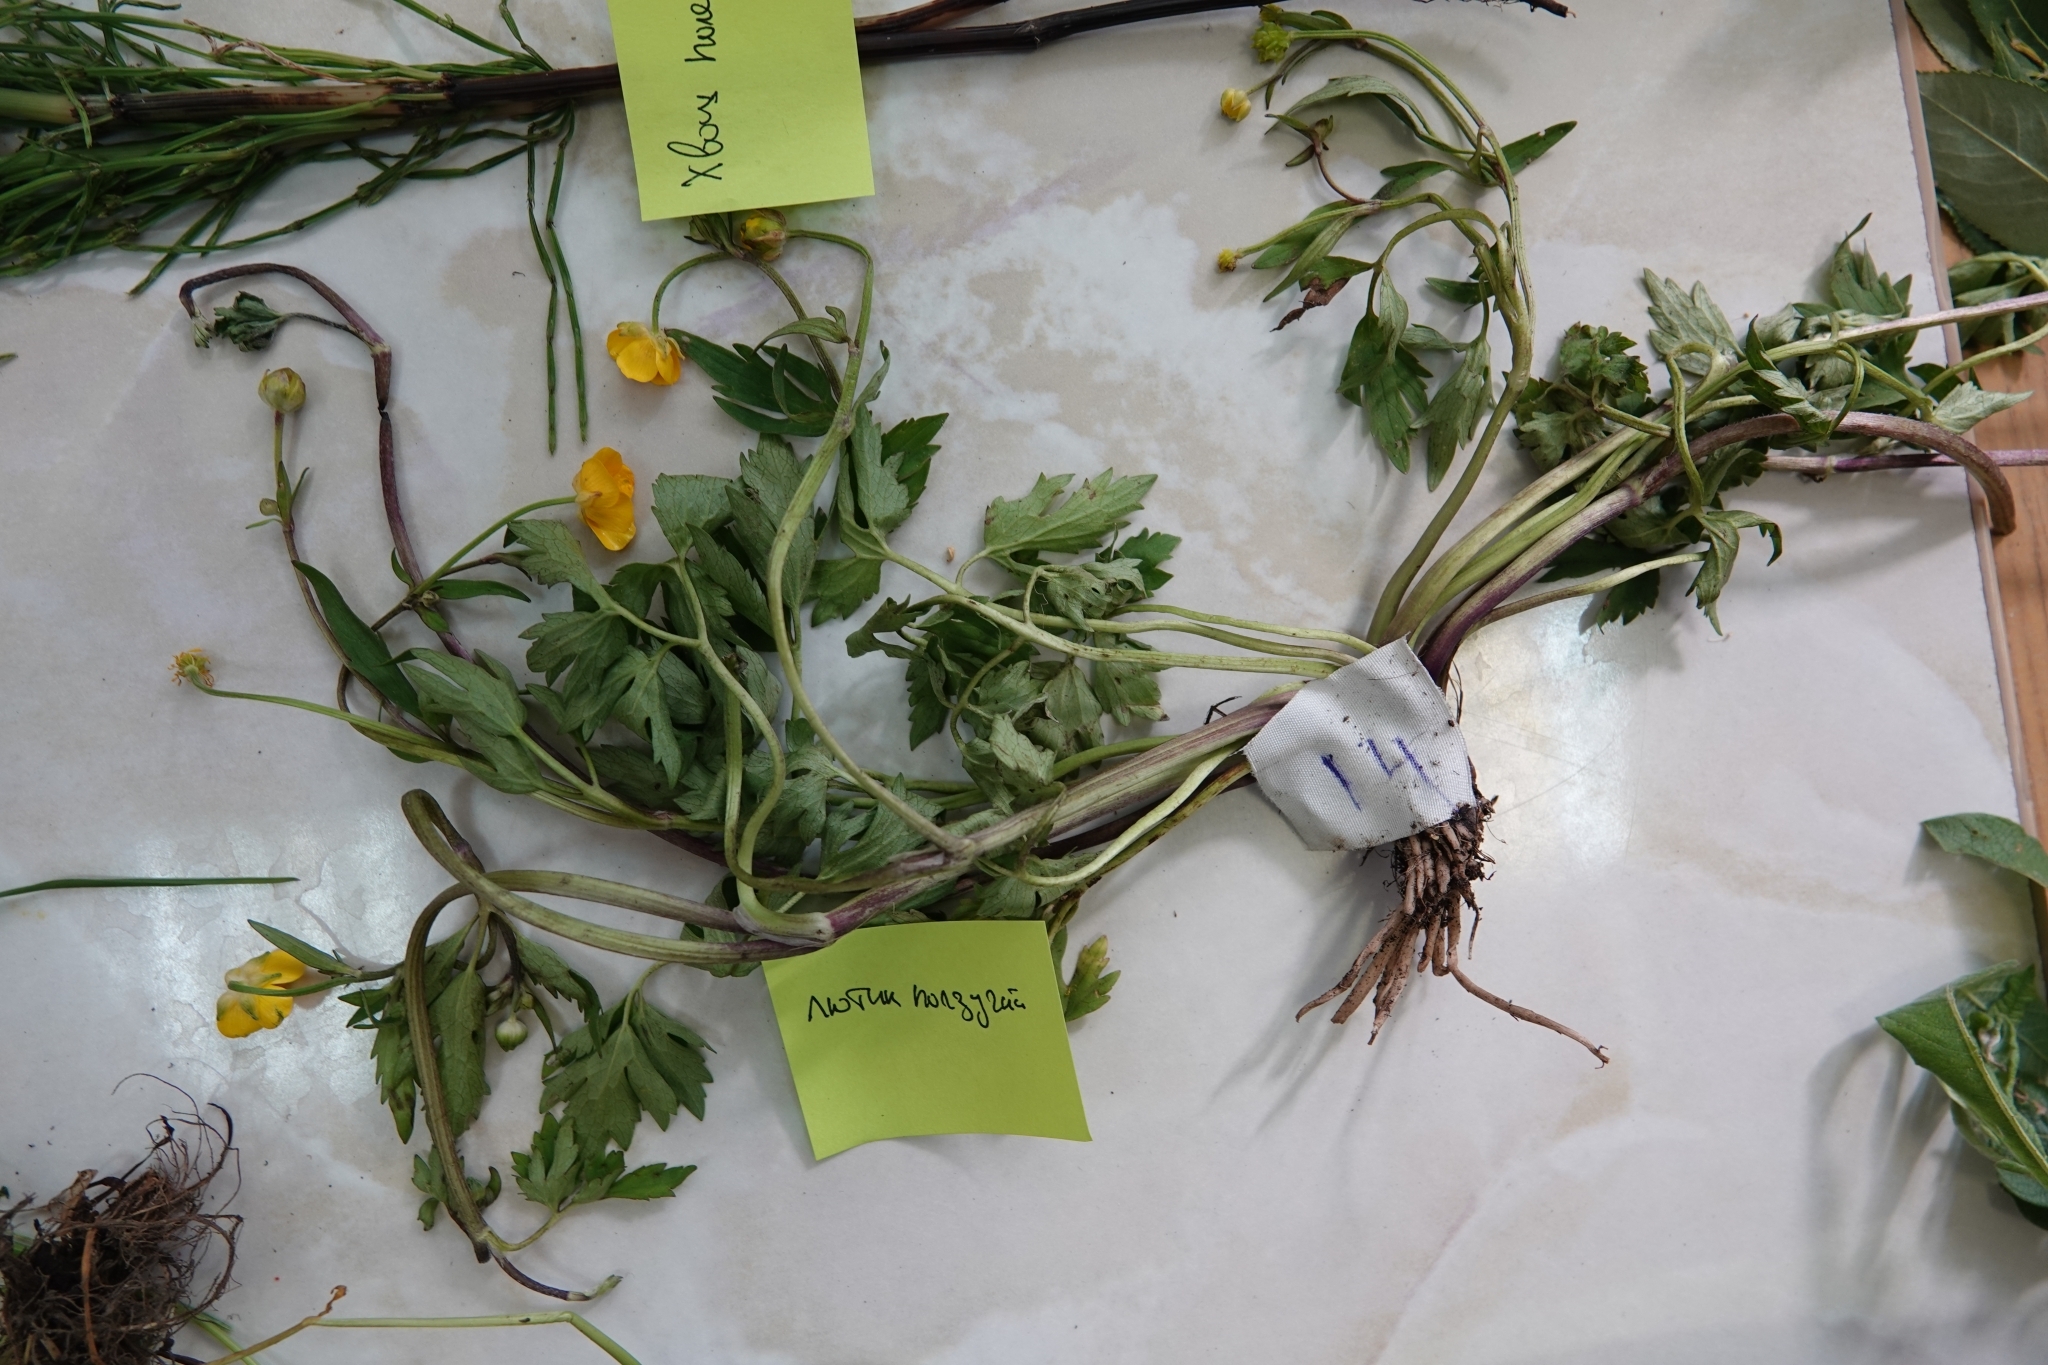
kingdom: Plantae
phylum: Tracheophyta
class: Magnoliopsida
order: Ranunculales
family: Ranunculaceae
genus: Ranunculus
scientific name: Ranunculus repens
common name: Creeping buttercup
